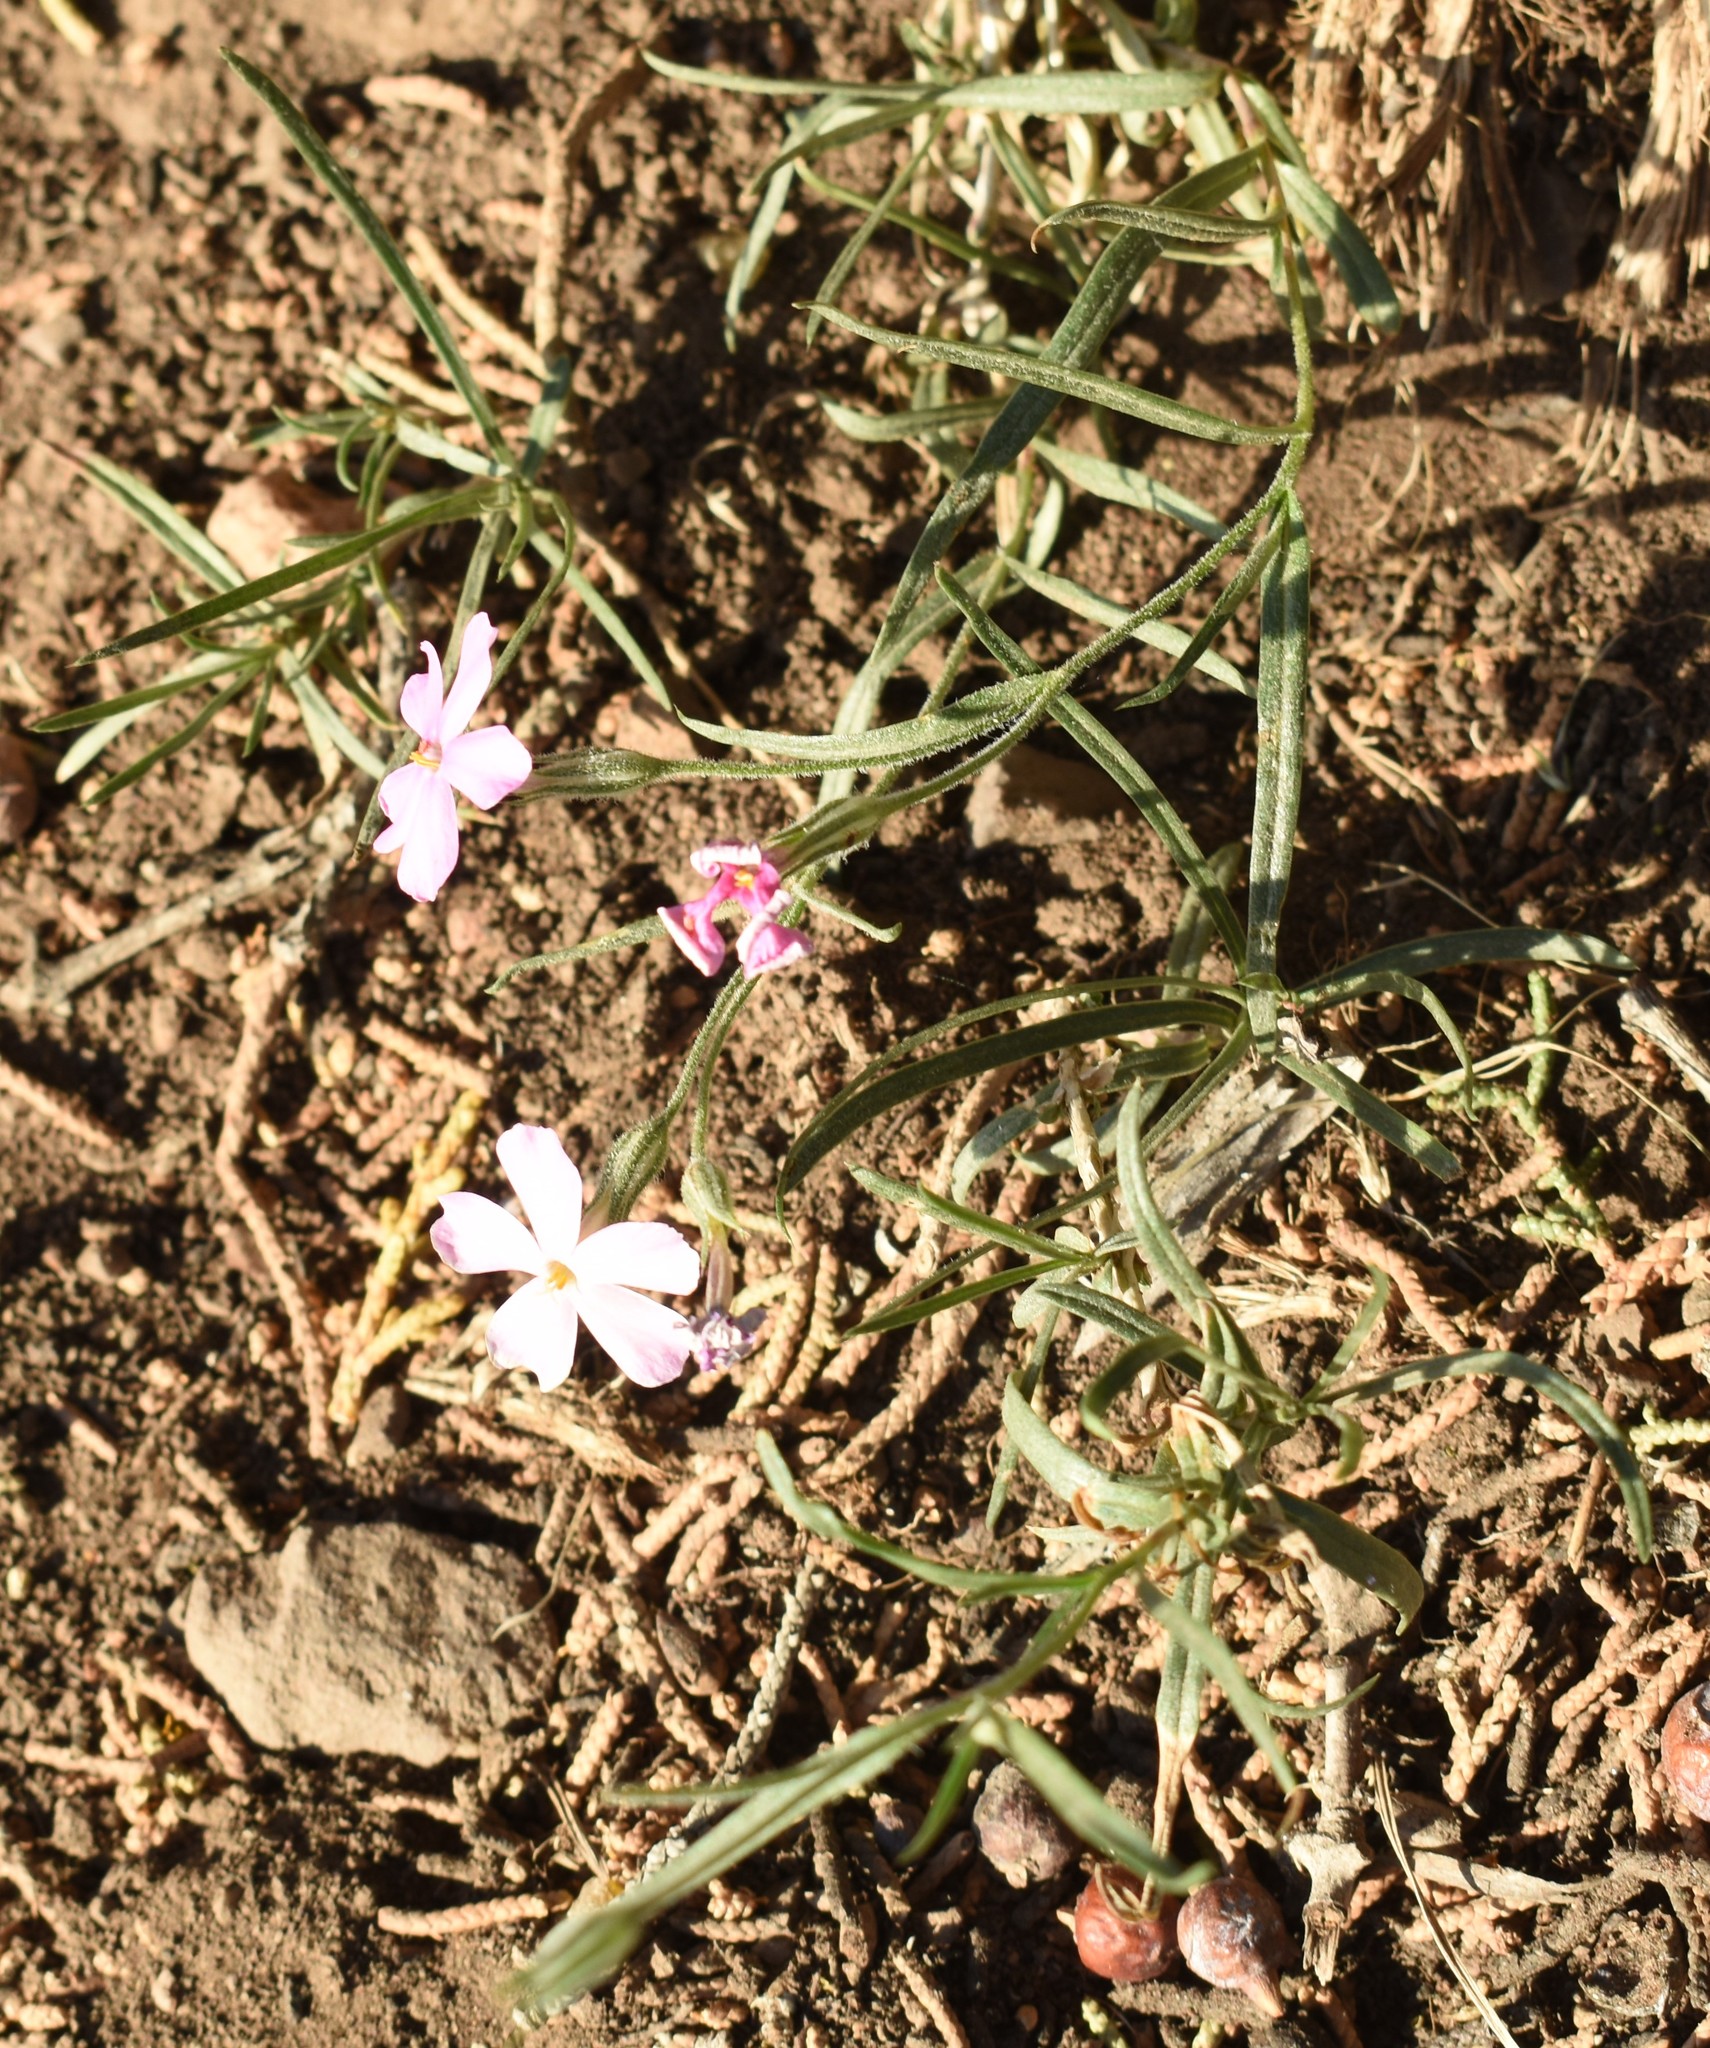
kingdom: Plantae
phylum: Tracheophyta
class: Magnoliopsida
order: Ericales
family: Polemoniaceae
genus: Phlox
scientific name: Phlox longifolia
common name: Longleaf phlox
